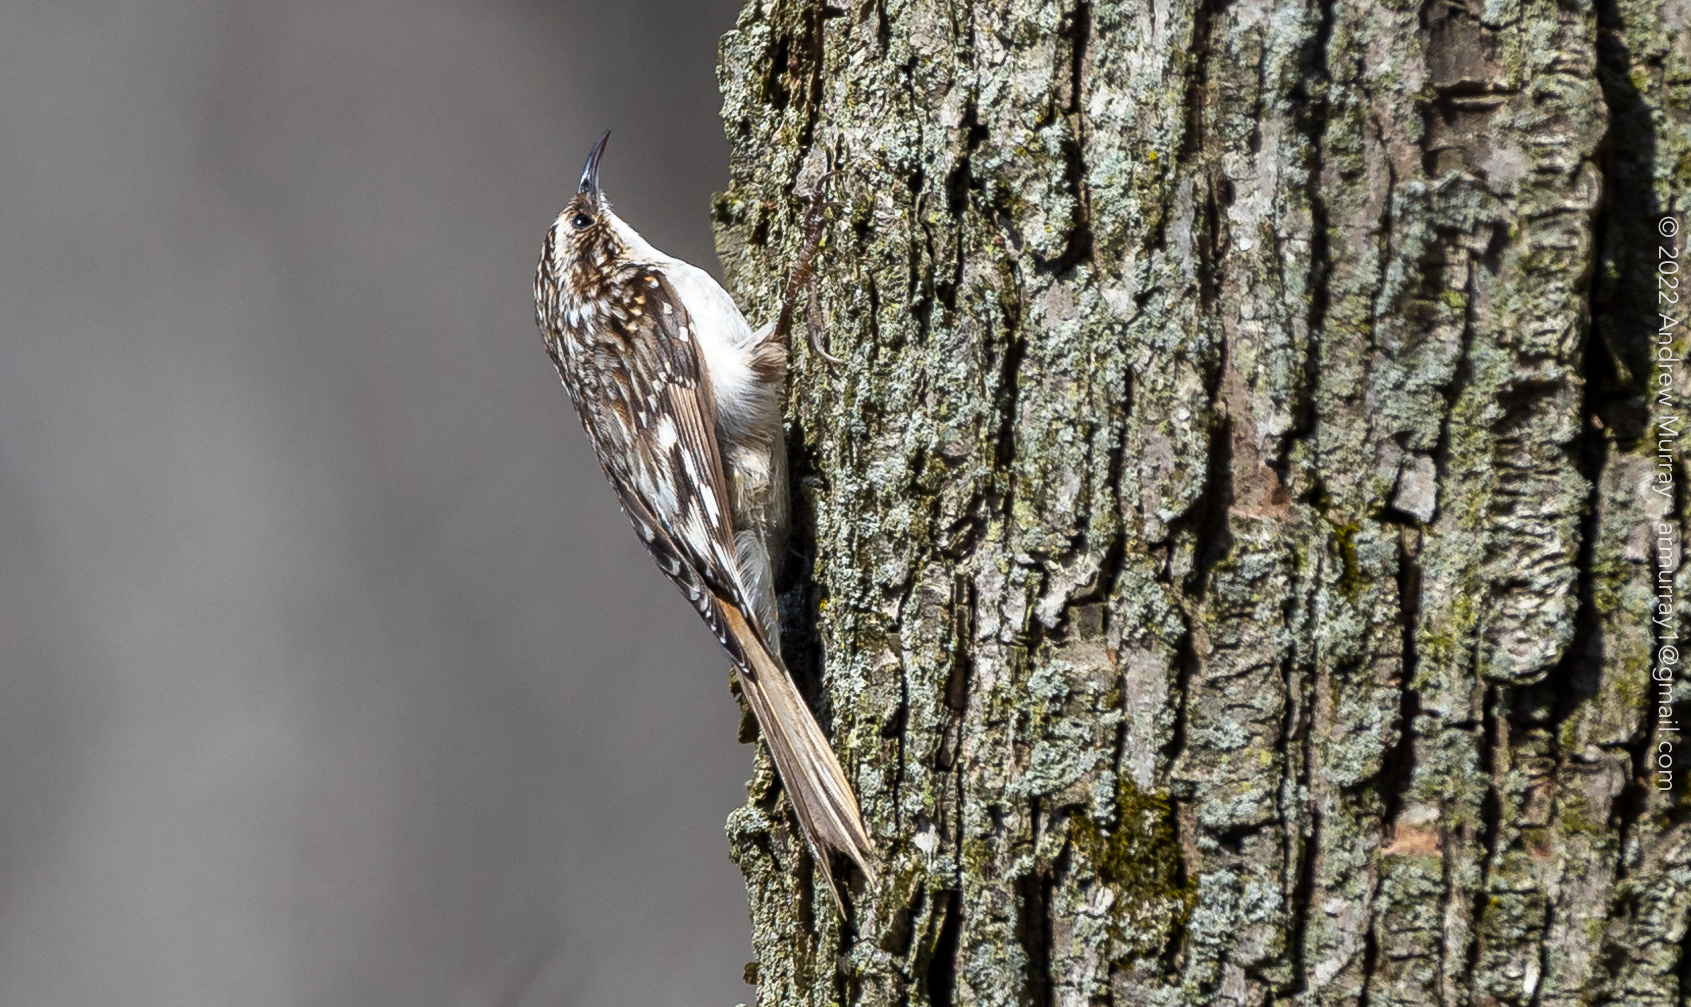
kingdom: Animalia
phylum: Chordata
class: Aves
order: Passeriformes
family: Certhiidae
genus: Certhia
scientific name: Certhia americana
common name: Brown creeper
